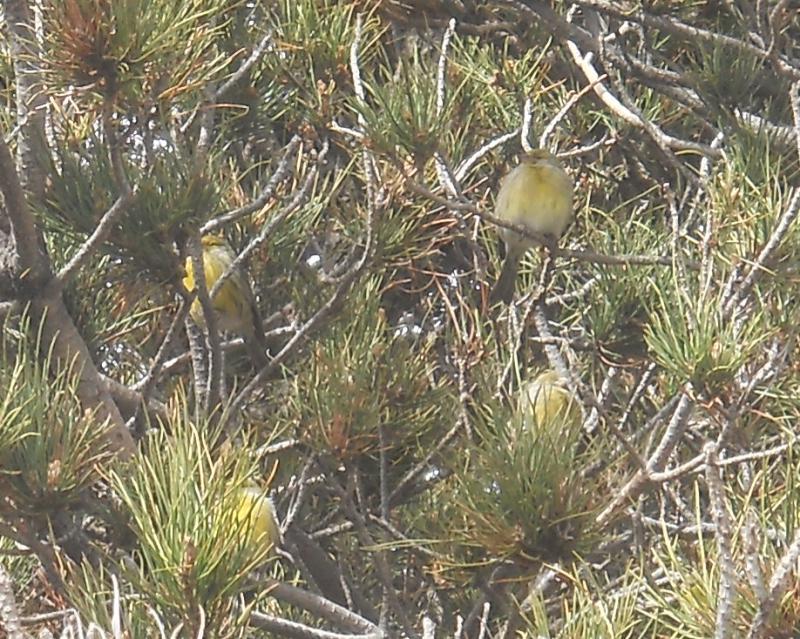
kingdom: Animalia
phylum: Chordata
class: Aves
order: Passeriformes
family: Fringillidae
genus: Serinus
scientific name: Serinus canaria
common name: Atlantic canary
